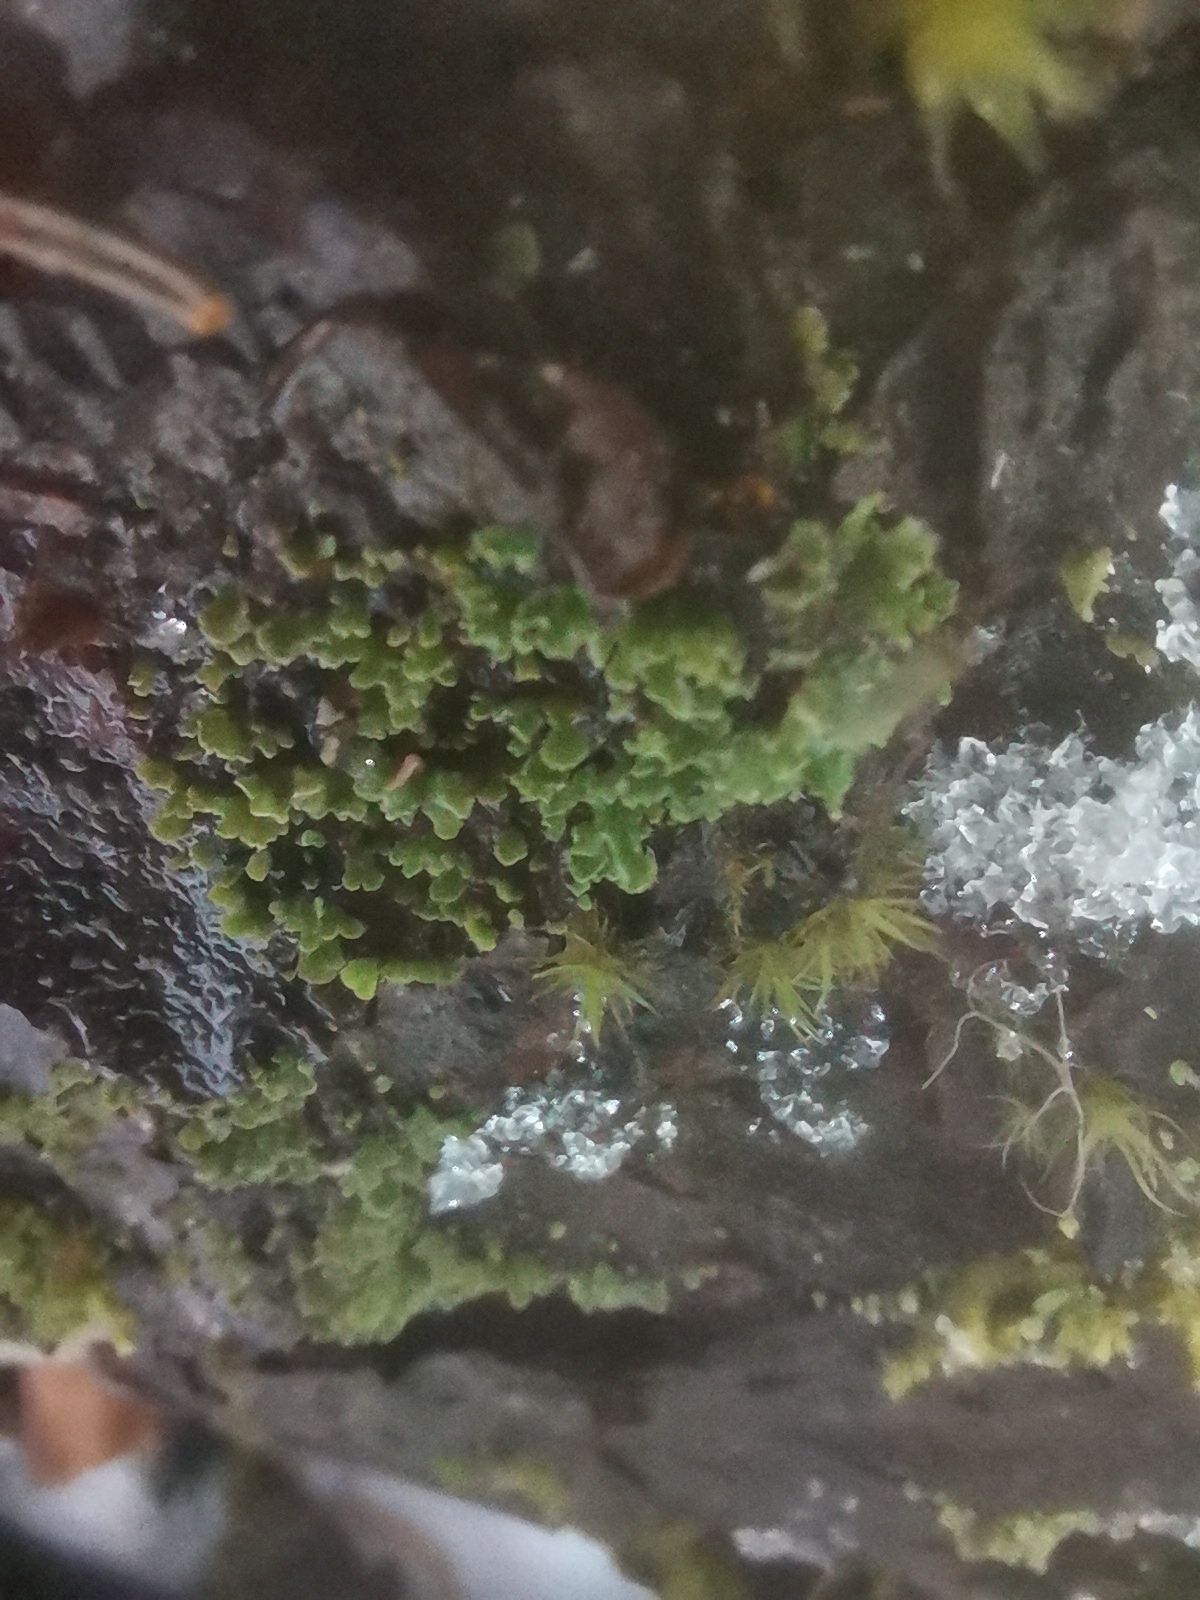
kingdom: Fungi
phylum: Ascomycota
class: Lecanoromycetes
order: Umbilicariales
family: Ophioparmaceae
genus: Hypocenomyce
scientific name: Hypocenomyce scalaris
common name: Common clam lichen
